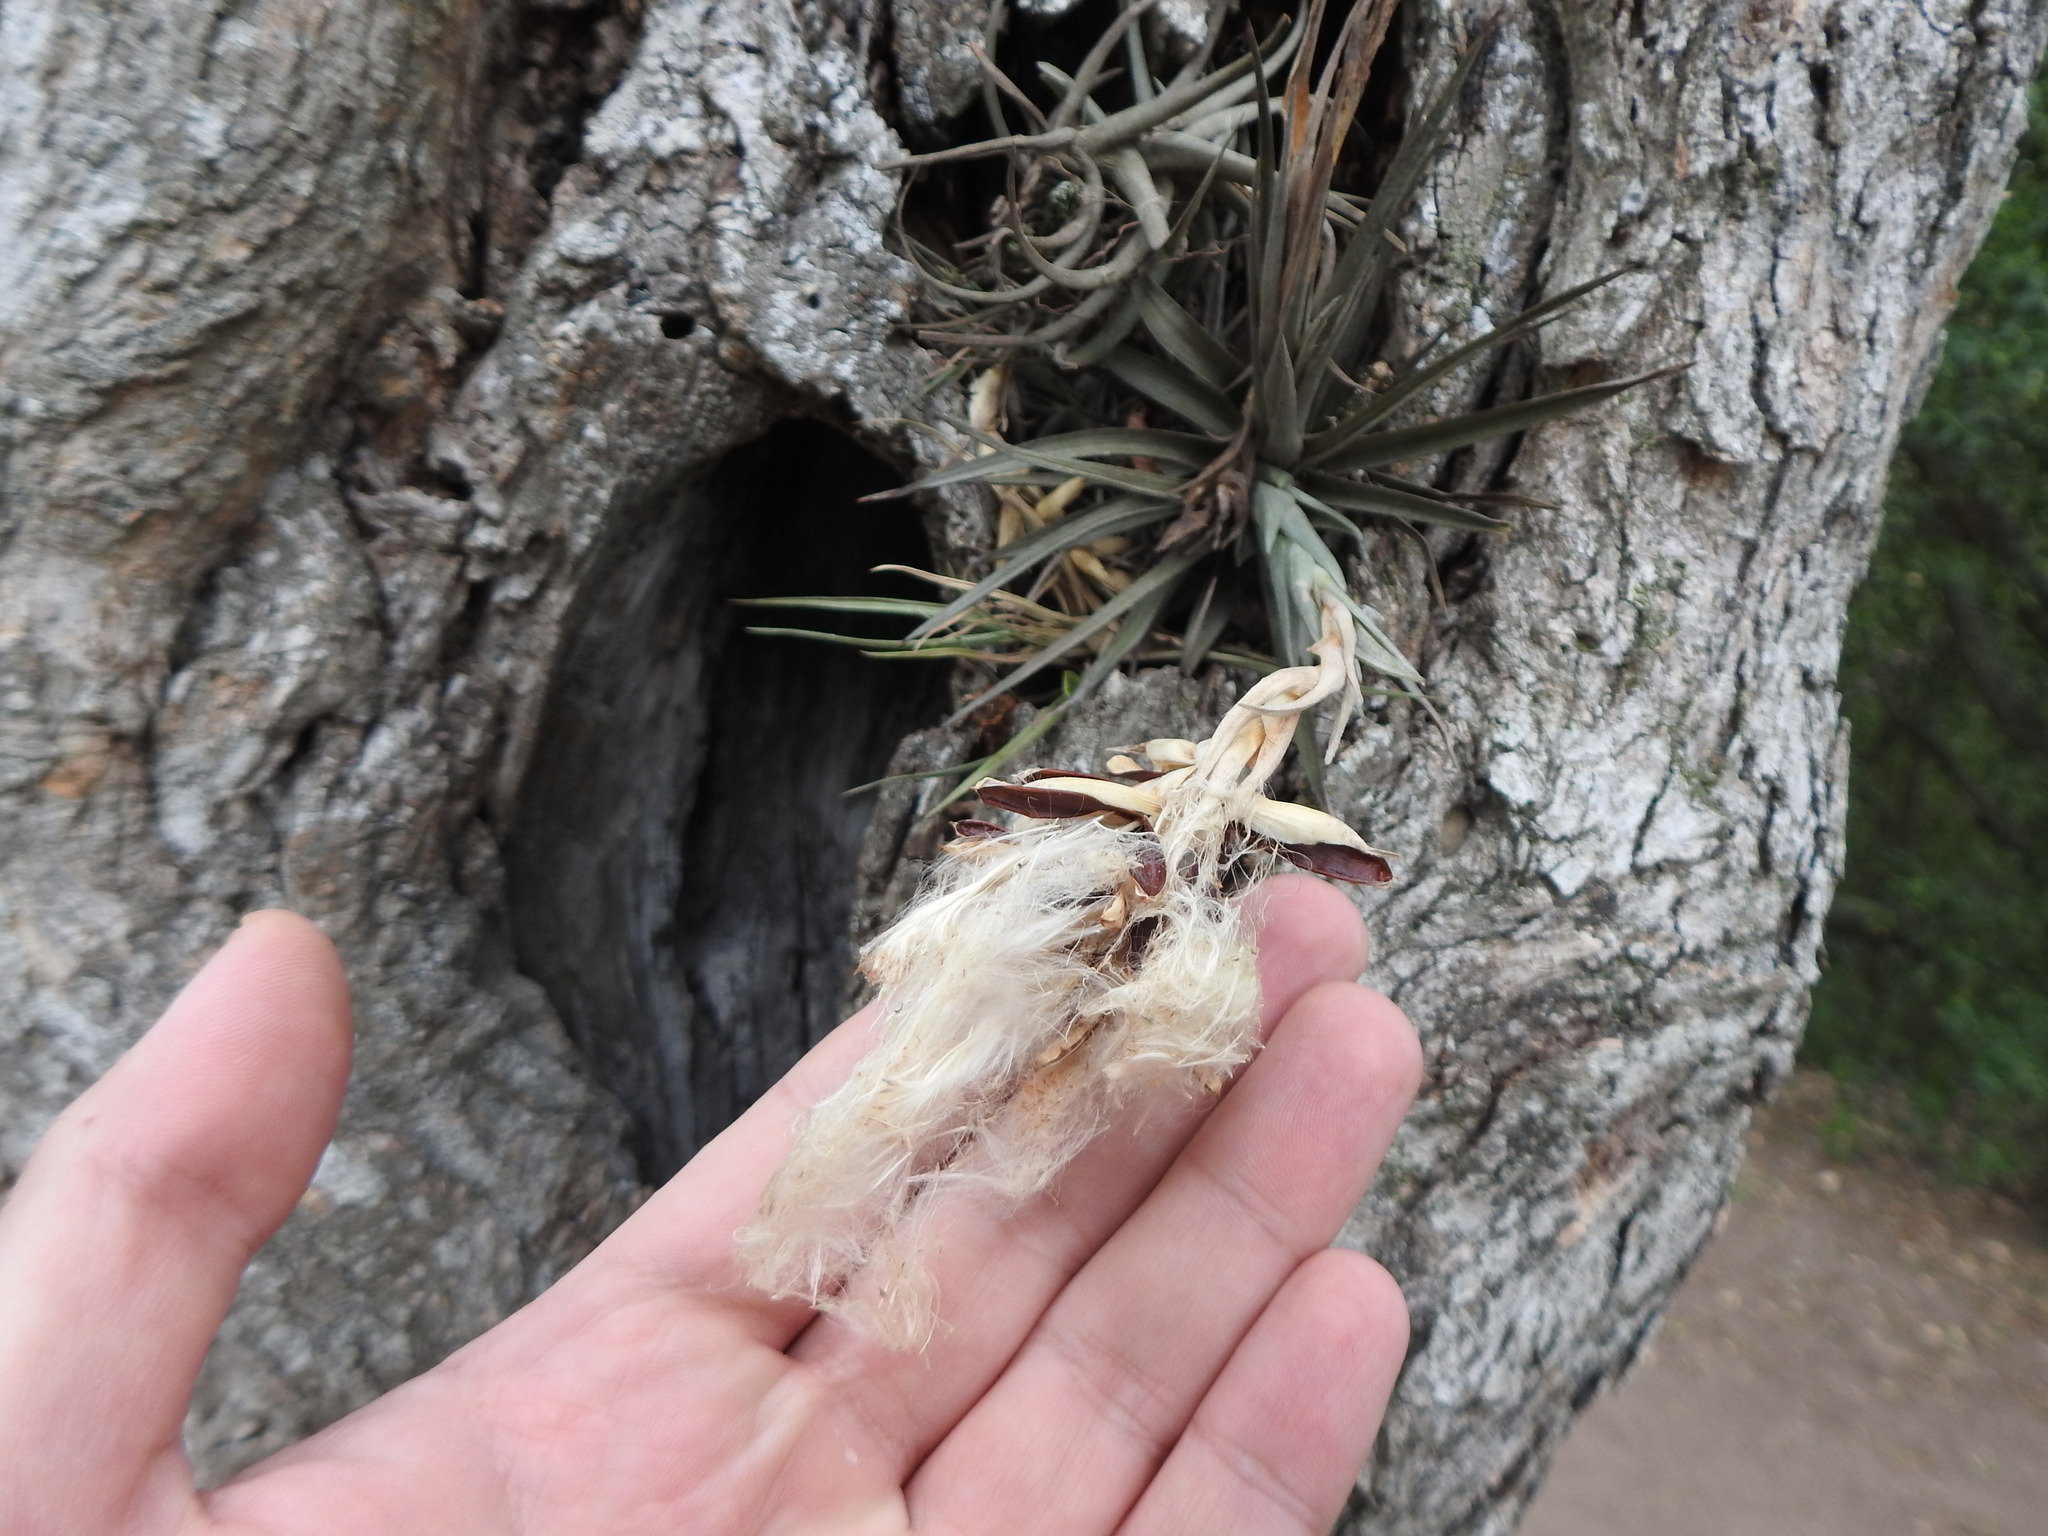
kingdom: Plantae
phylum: Tracheophyta
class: Liliopsida
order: Poales
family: Bromeliaceae
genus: Tillandsia
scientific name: Tillandsia aeranthos
